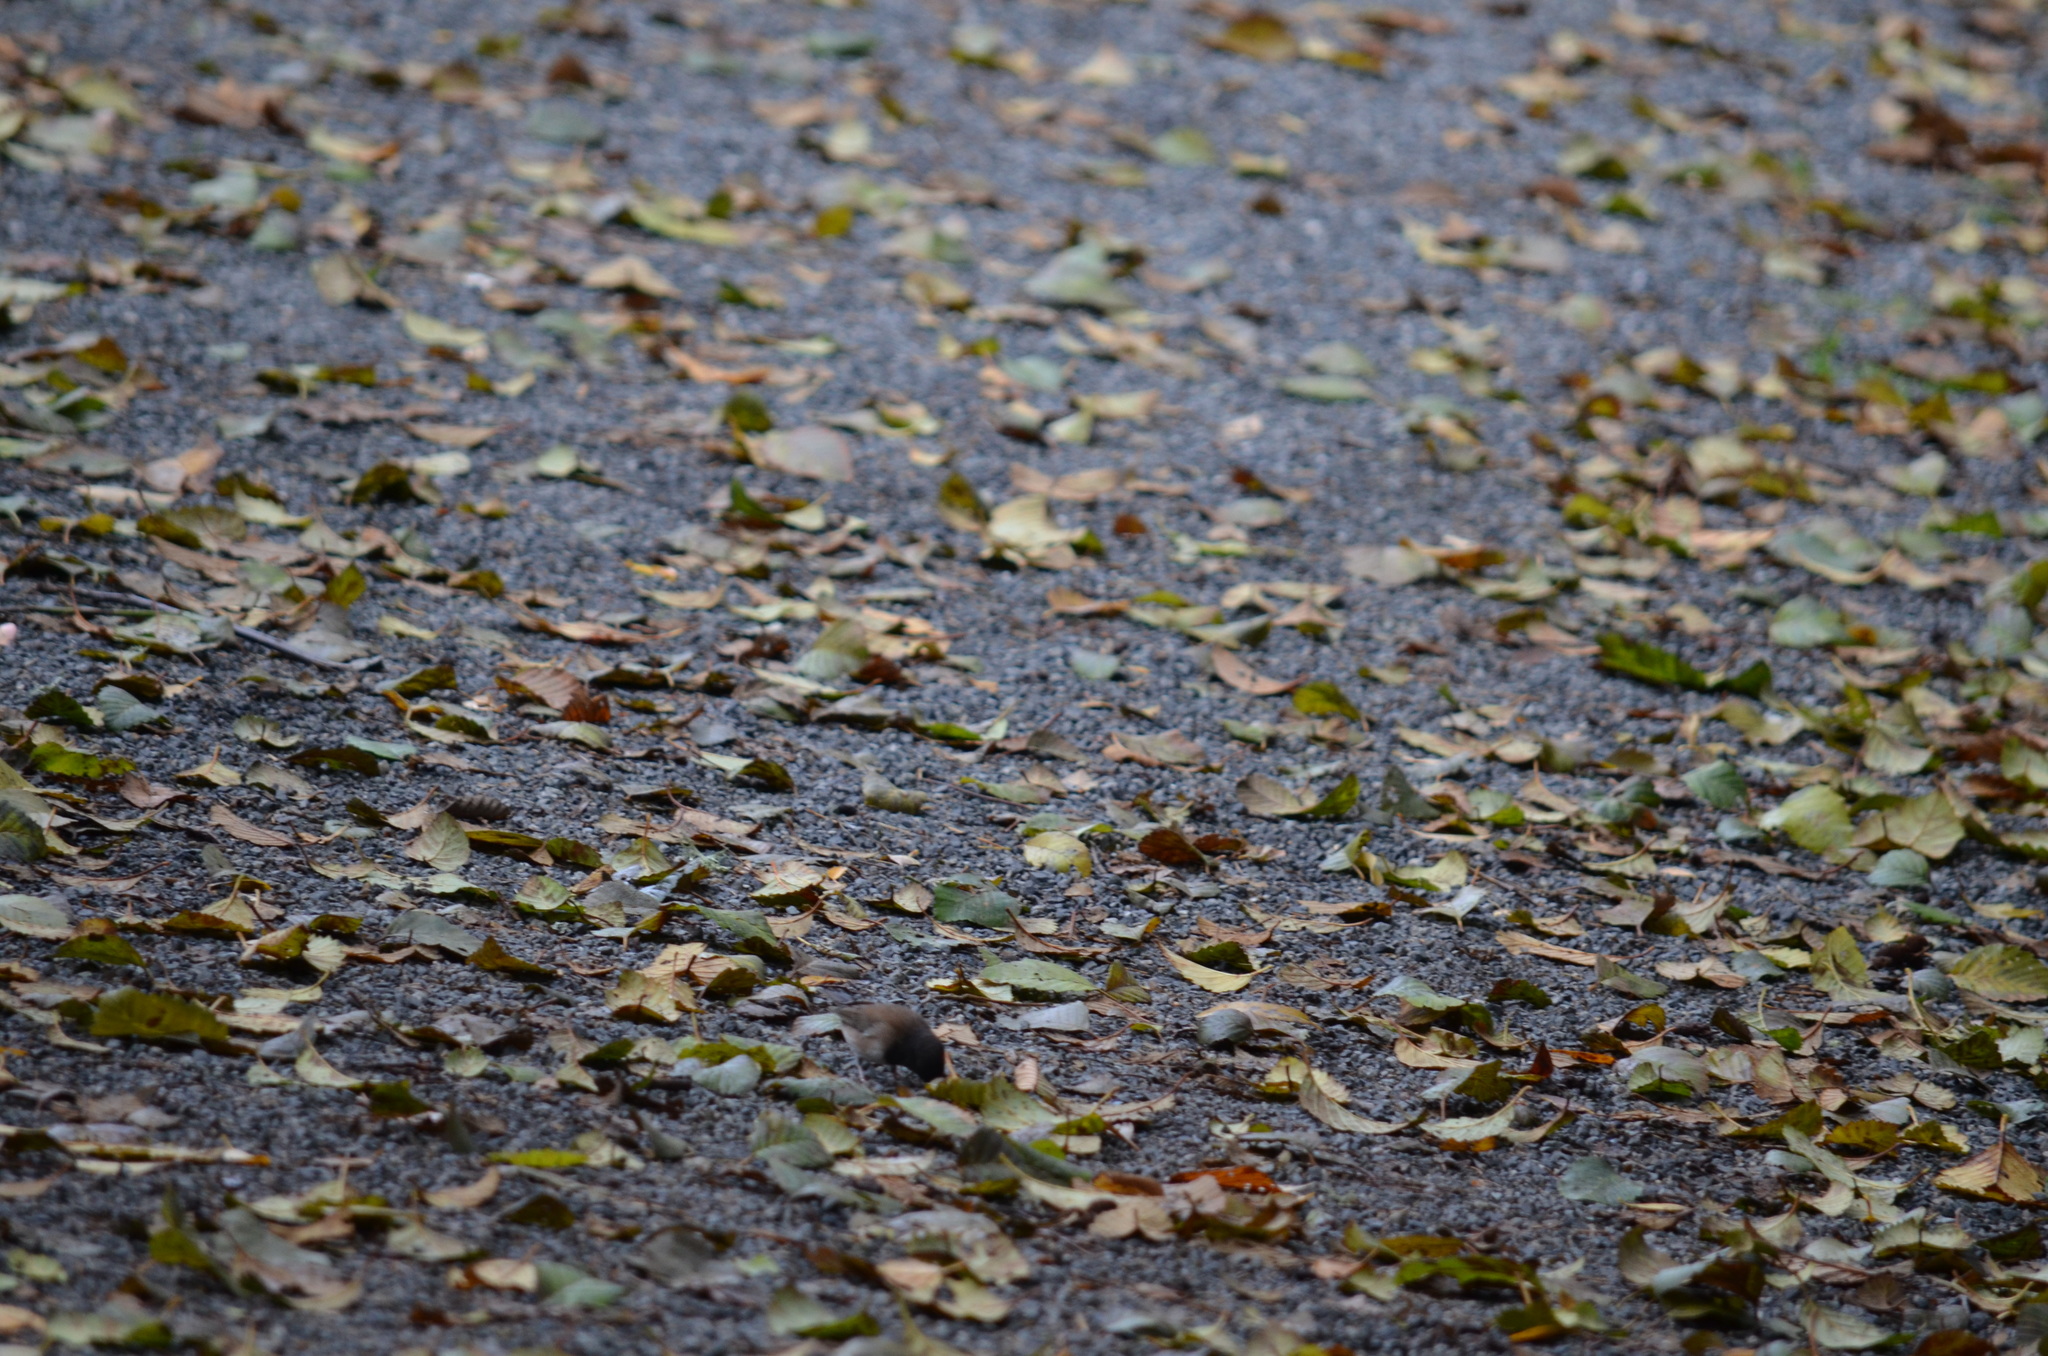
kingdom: Animalia
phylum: Chordata
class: Aves
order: Passeriformes
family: Passerellidae
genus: Junco
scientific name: Junco hyemalis
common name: Dark-eyed junco
